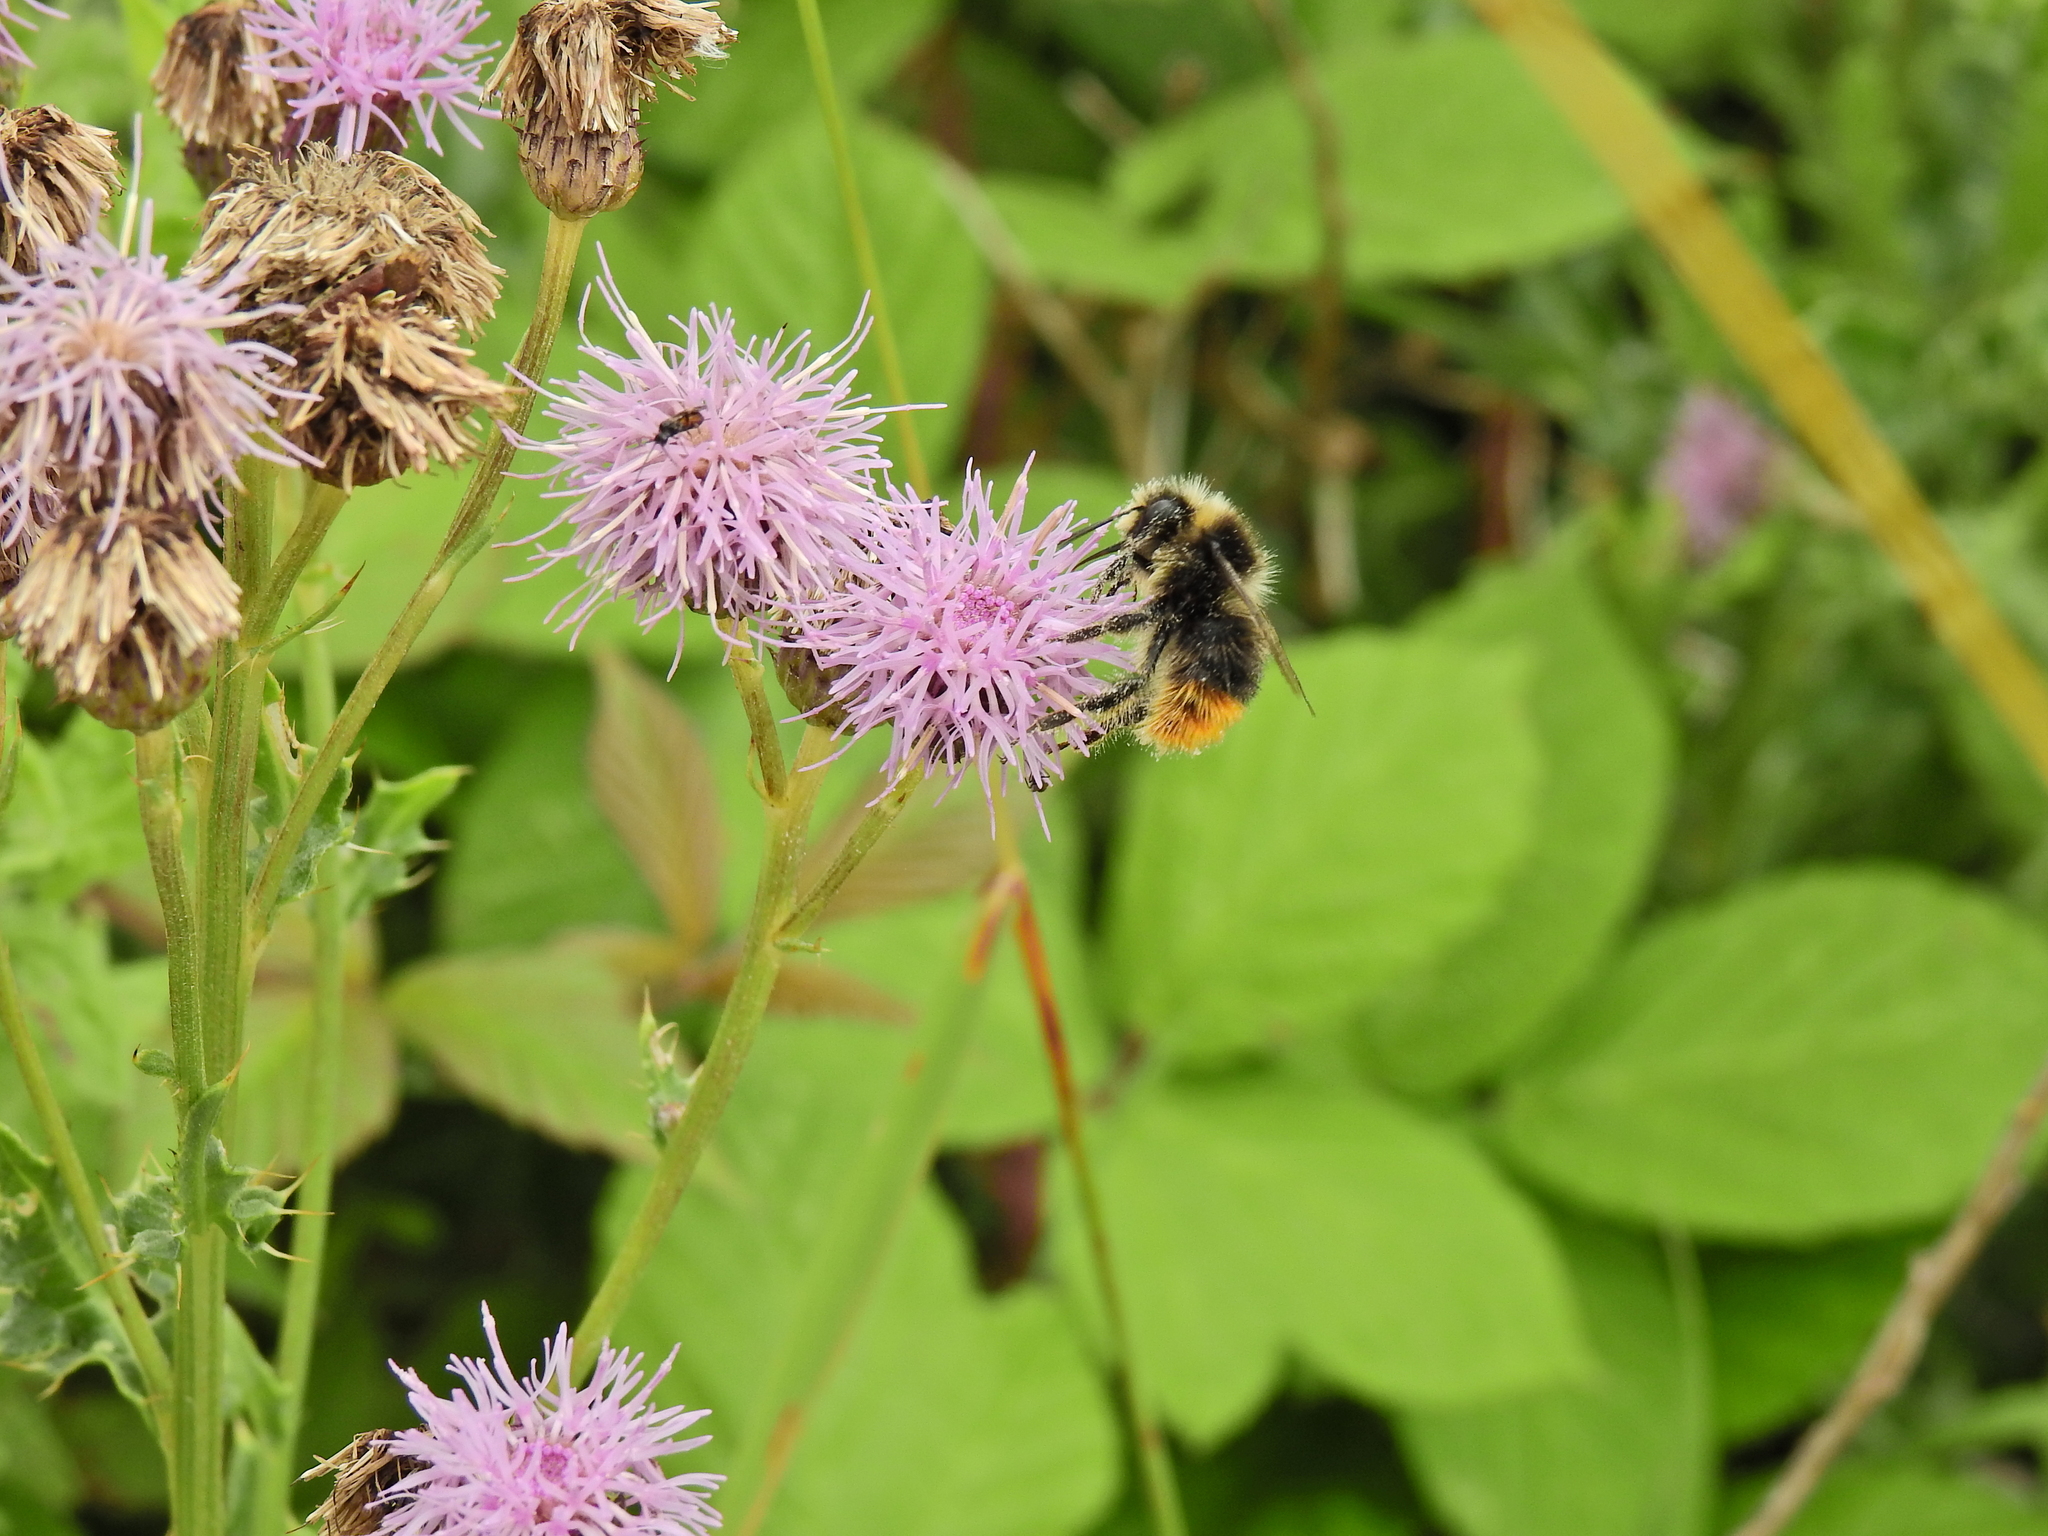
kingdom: Animalia
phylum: Arthropoda
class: Insecta
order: Hymenoptera
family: Apidae
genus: Bombus
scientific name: Bombus lapidarius
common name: Large red-tailed humble-bee
